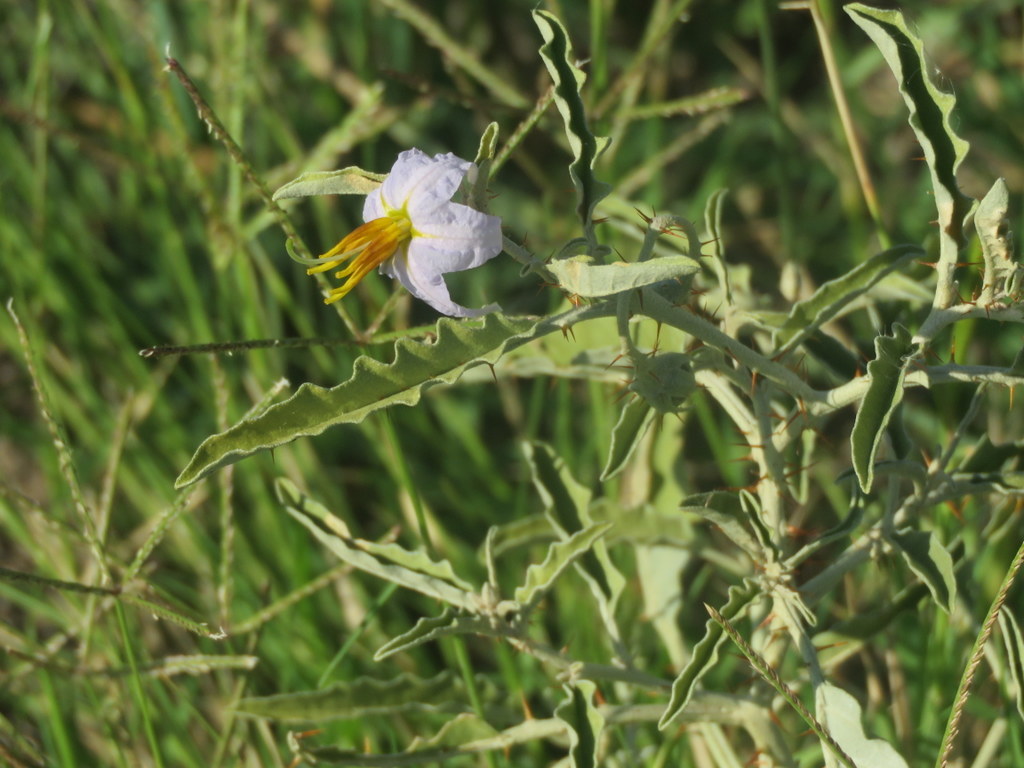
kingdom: Plantae
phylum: Tracheophyta
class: Magnoliopsida
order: Solanales
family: Solanaceae
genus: Solanum
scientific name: Solanum elaeagnifolium
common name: Silverleaf nightshade
